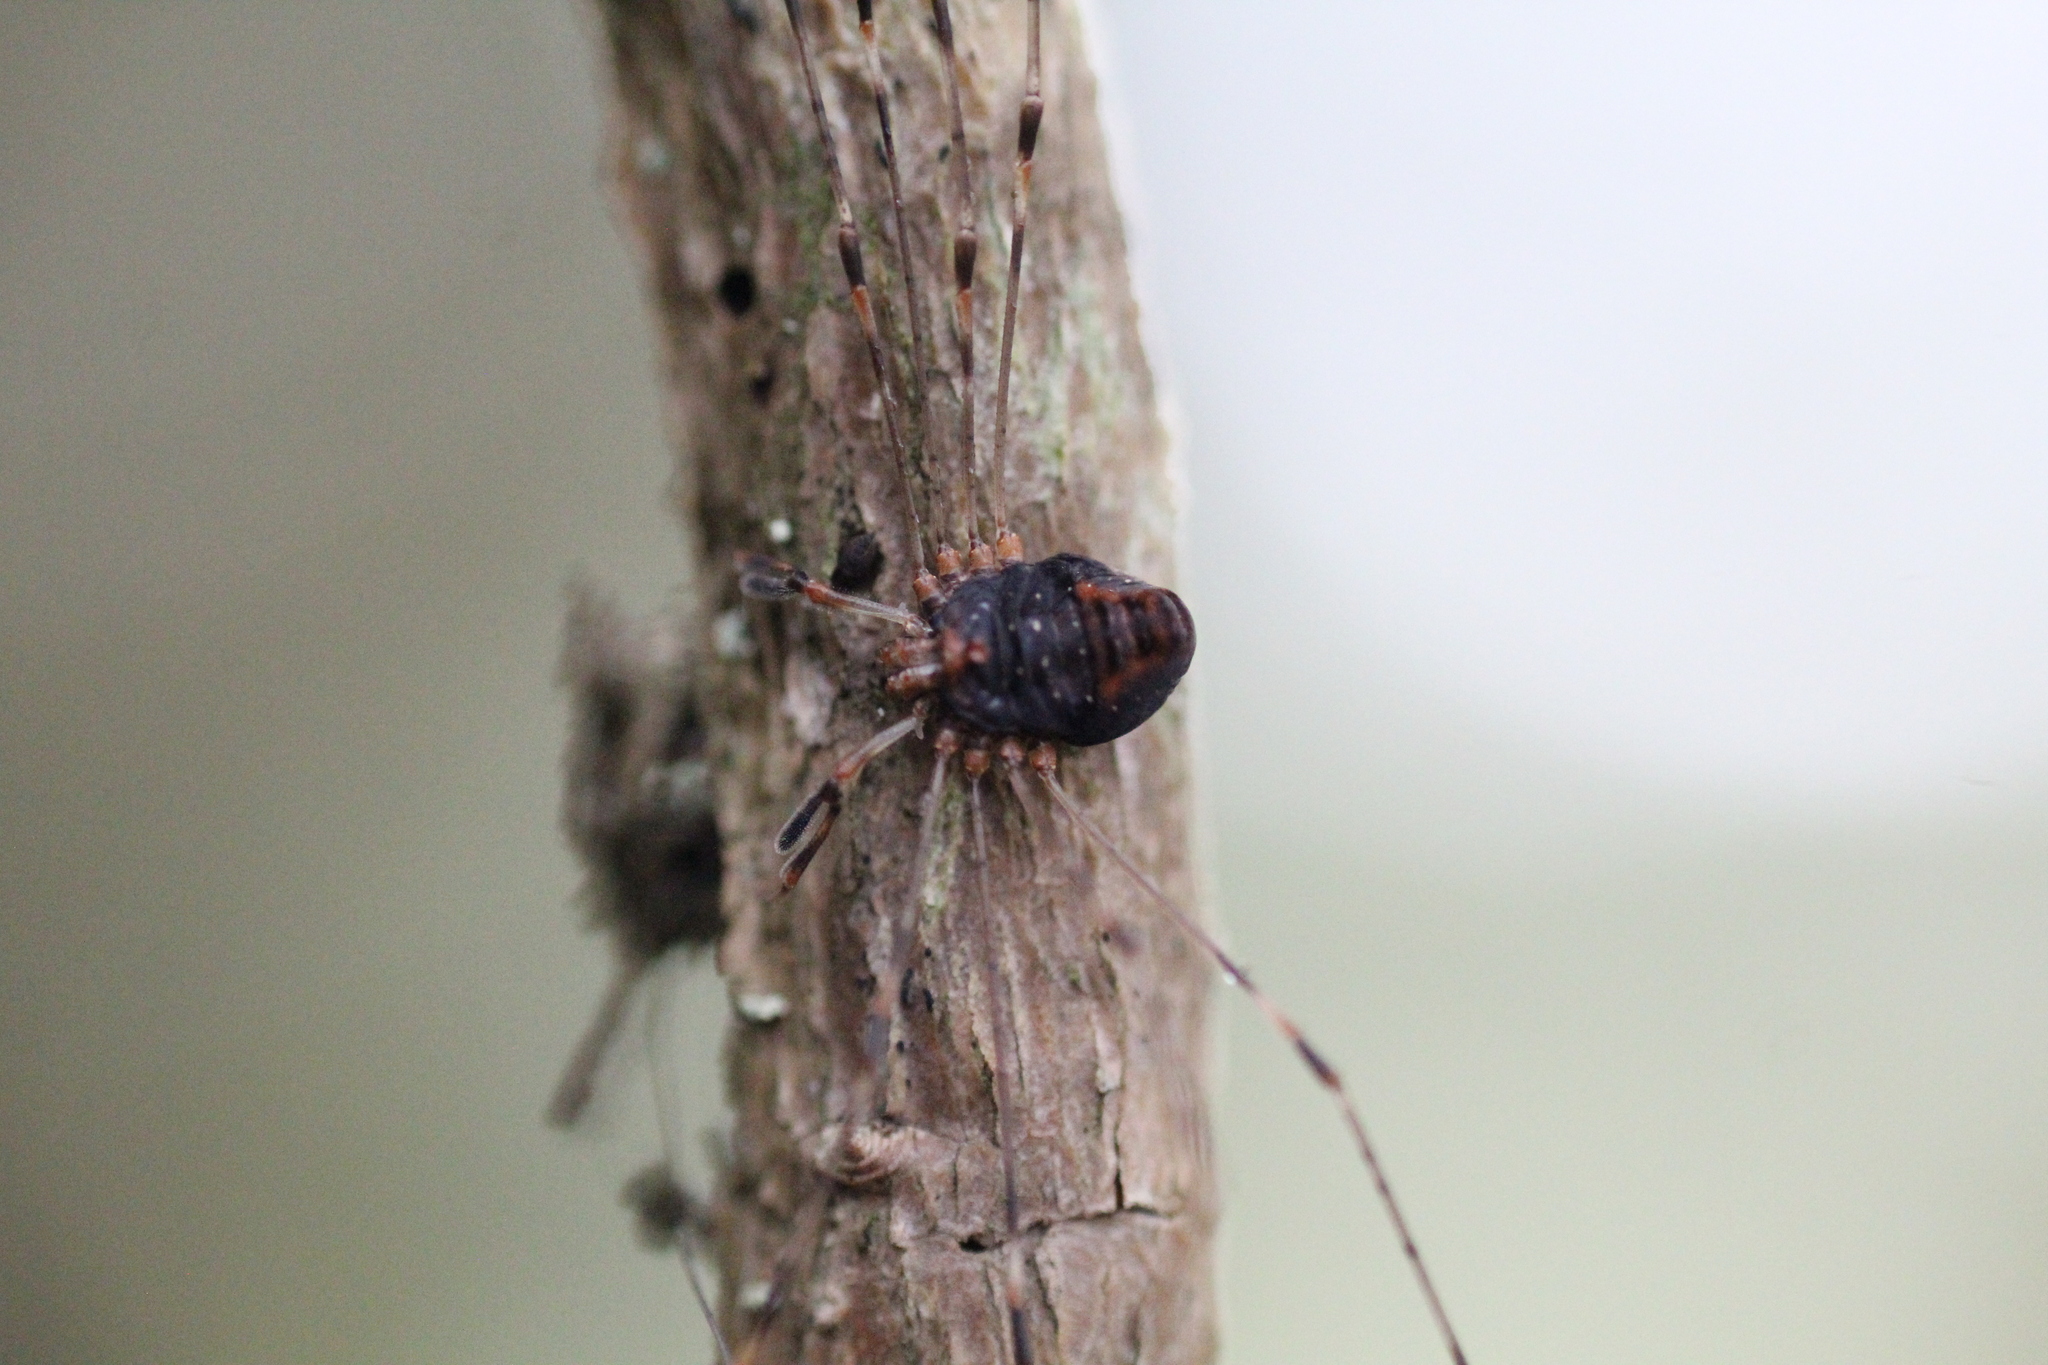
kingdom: Animalia
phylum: Arthropoda
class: Arachnida
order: Opiliones
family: Phalangiidae
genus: Dicranopalpus
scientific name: Dicranopalpus ramosus
